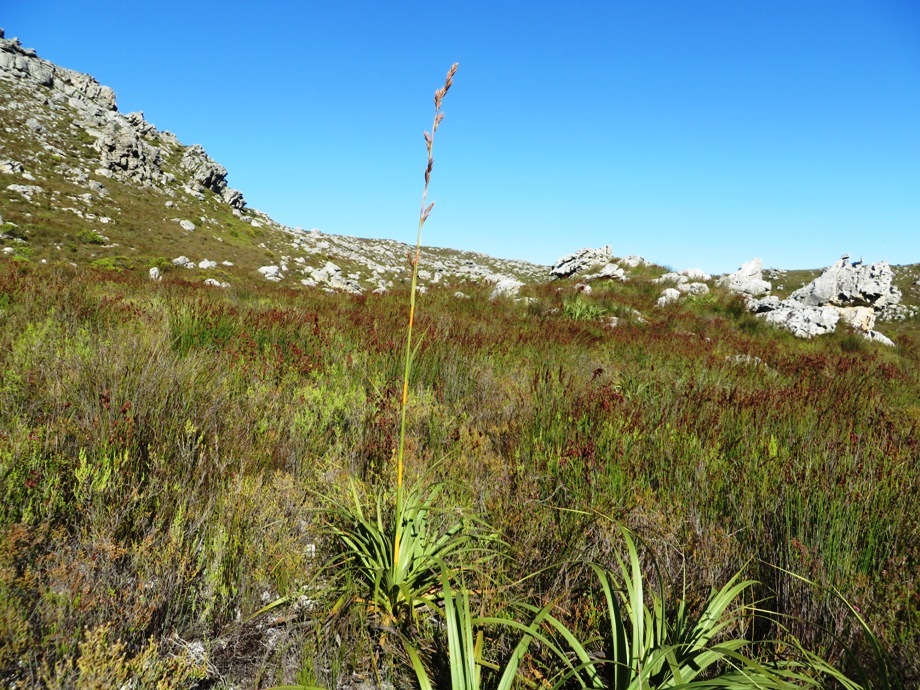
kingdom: Plantae
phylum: Tracheophyta
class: Liliopsida
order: Poales
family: Cyperaceae
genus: Tetraria
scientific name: Tetraria thermalis
